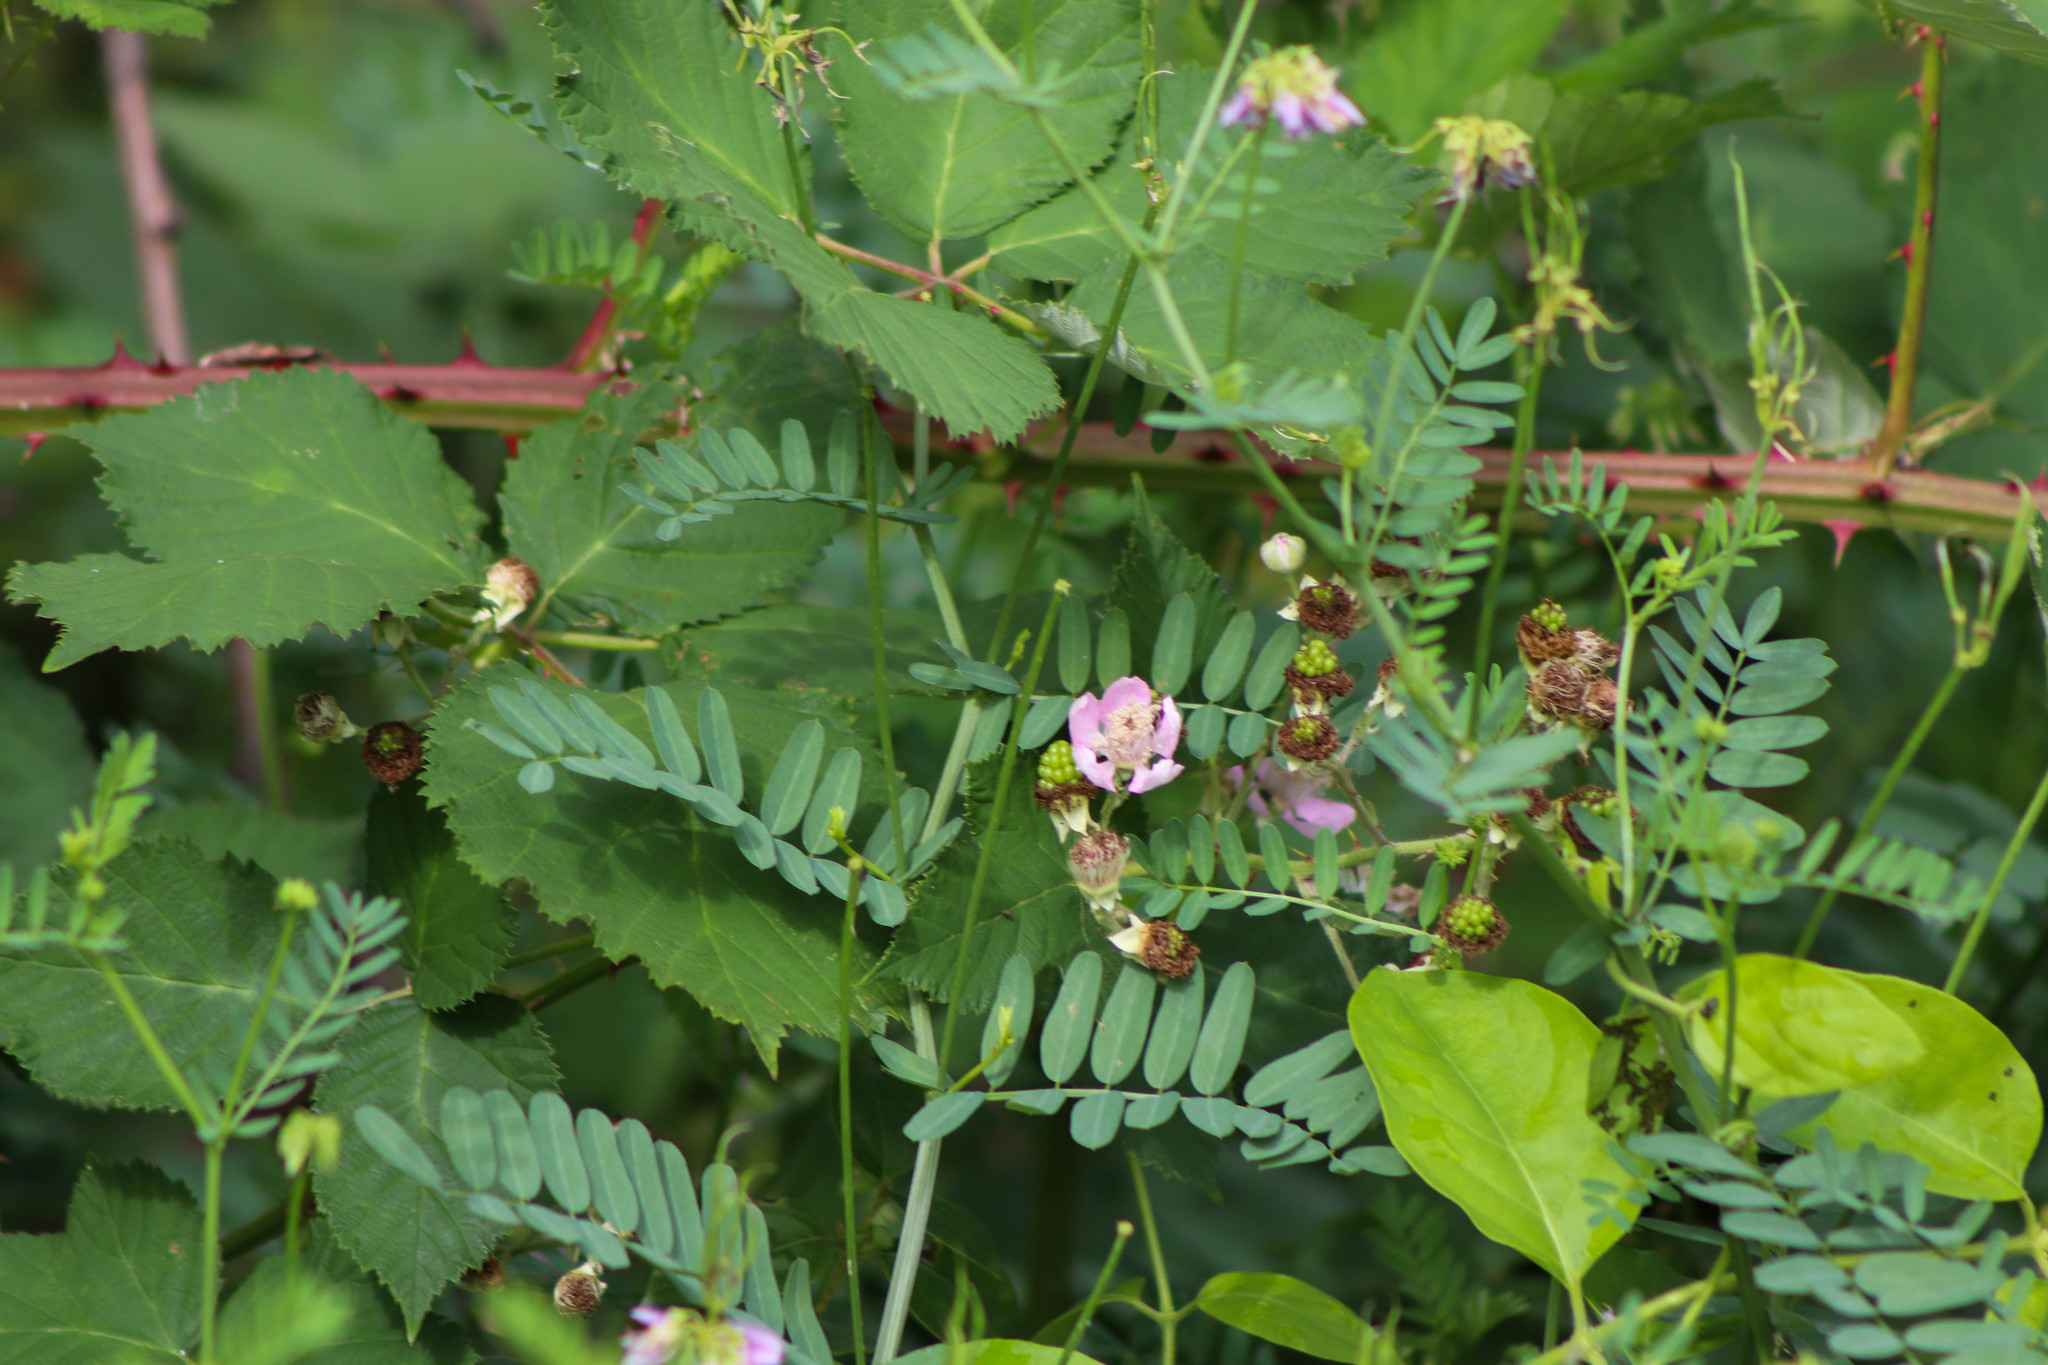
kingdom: Plantae
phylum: Tracheophyta
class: Magnoliopsida
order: Fabales
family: Fabaceae
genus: Coronilla
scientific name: Coronilla varia
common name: Crownvetch
